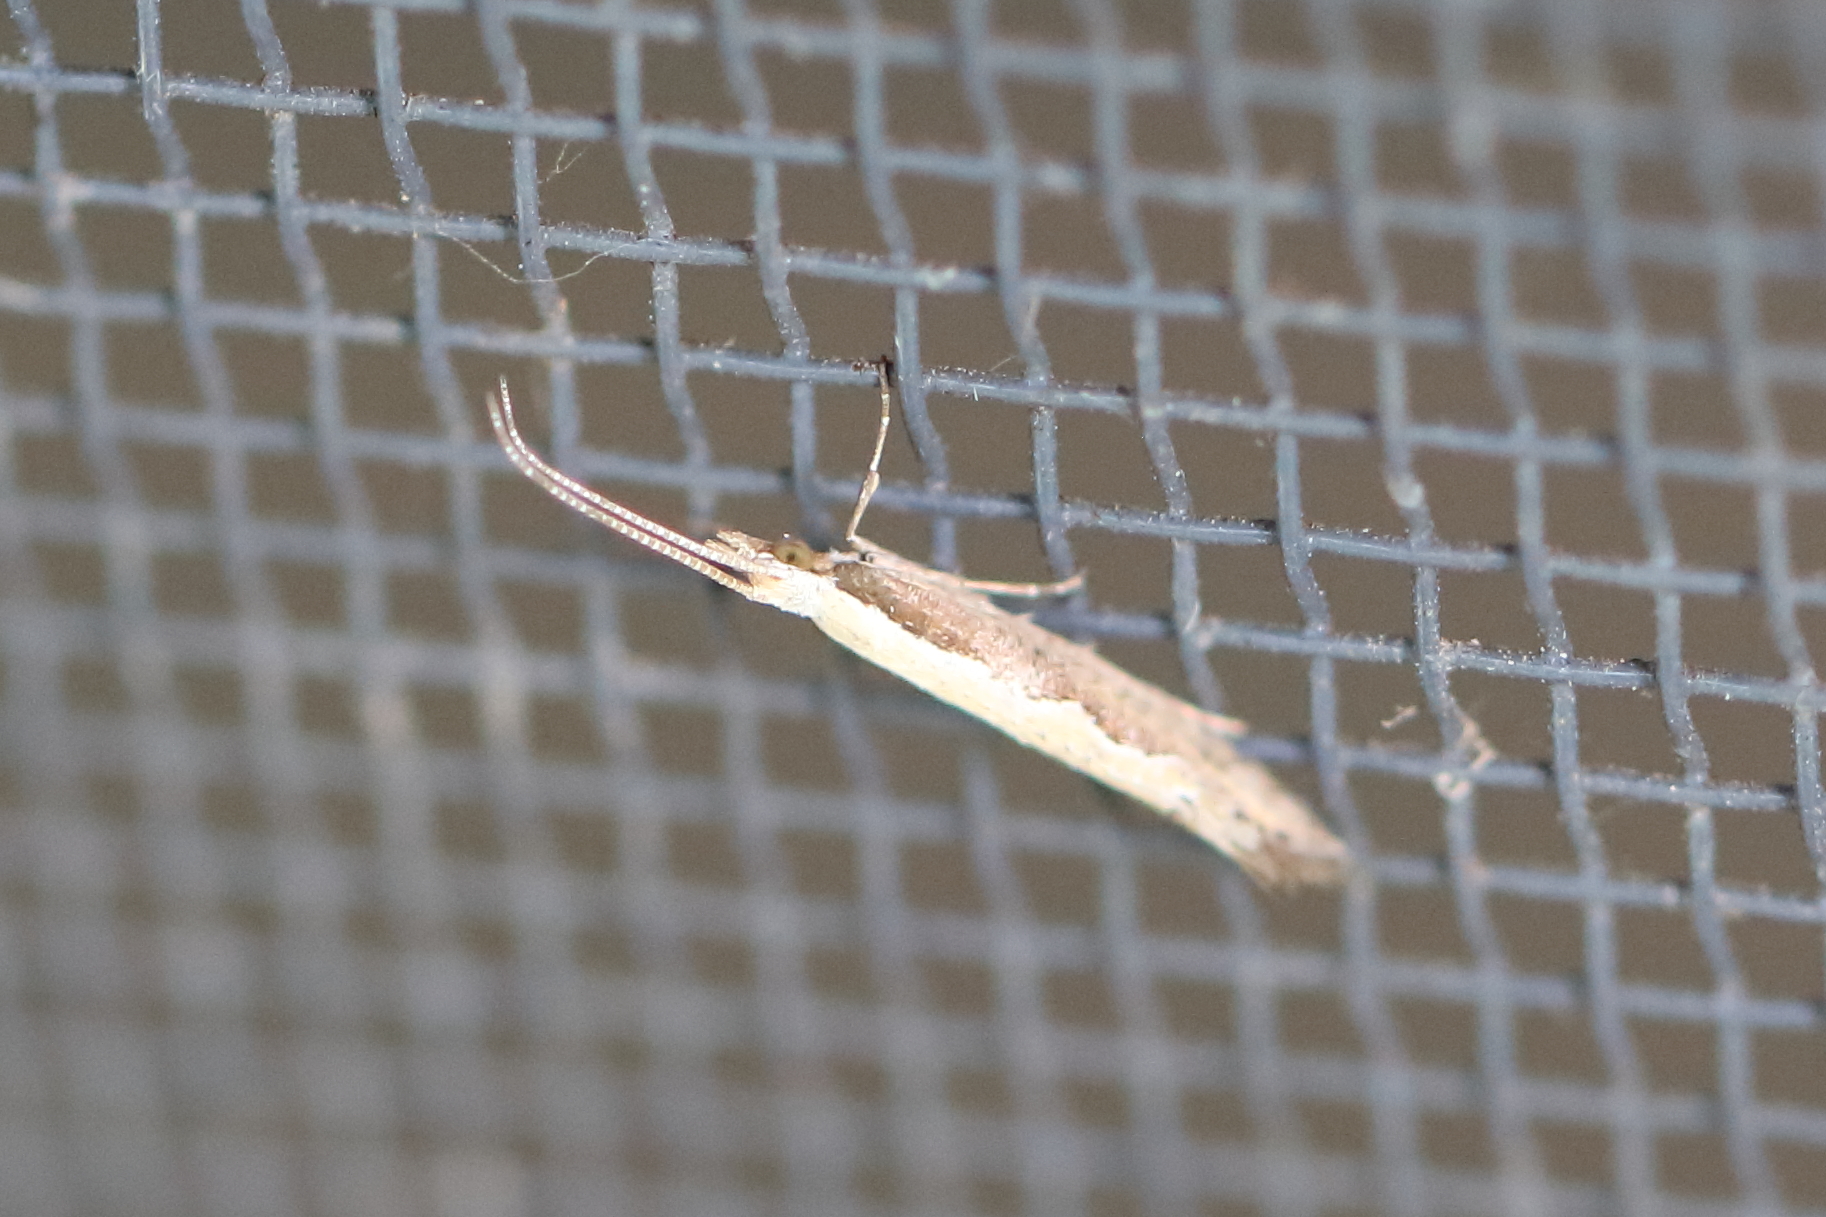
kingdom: Animalia
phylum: Arthropoda
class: Insecta
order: Lepidoptera
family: Plutellidae
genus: Plutella
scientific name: Plutella xylostella
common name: Diamond-back moth
